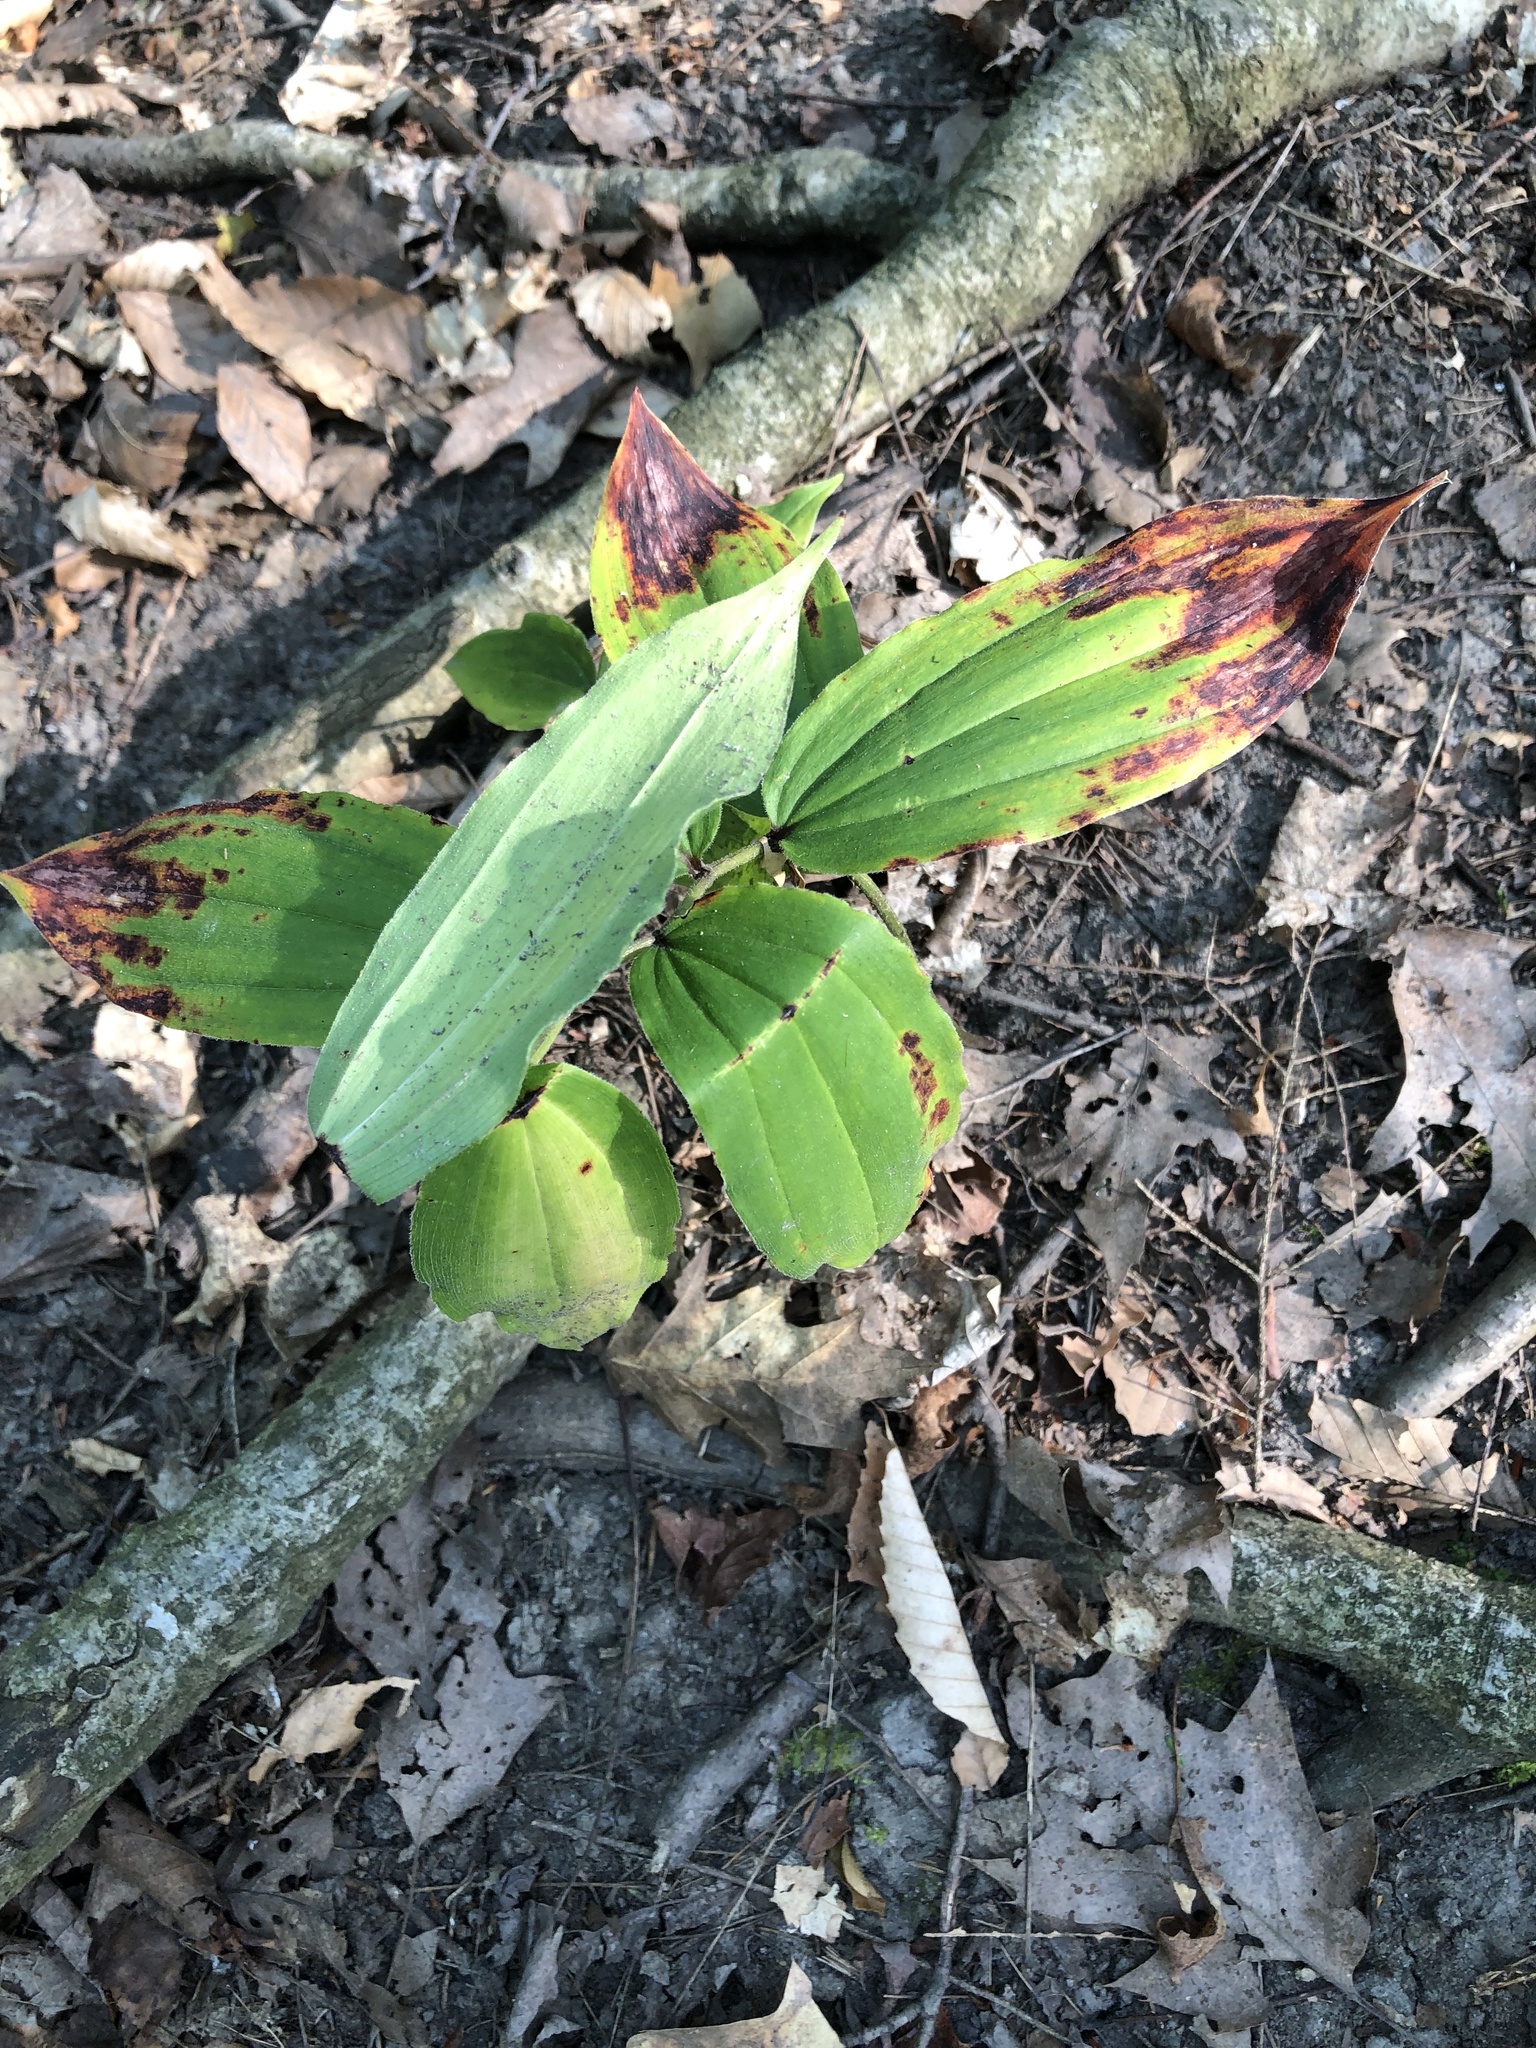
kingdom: Plantae
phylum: Tracheophyta
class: Liliopsida
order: Asparagales
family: Asparagaceae
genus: Maianthemum
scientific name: Maianthemum racemosum
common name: False spikenard
